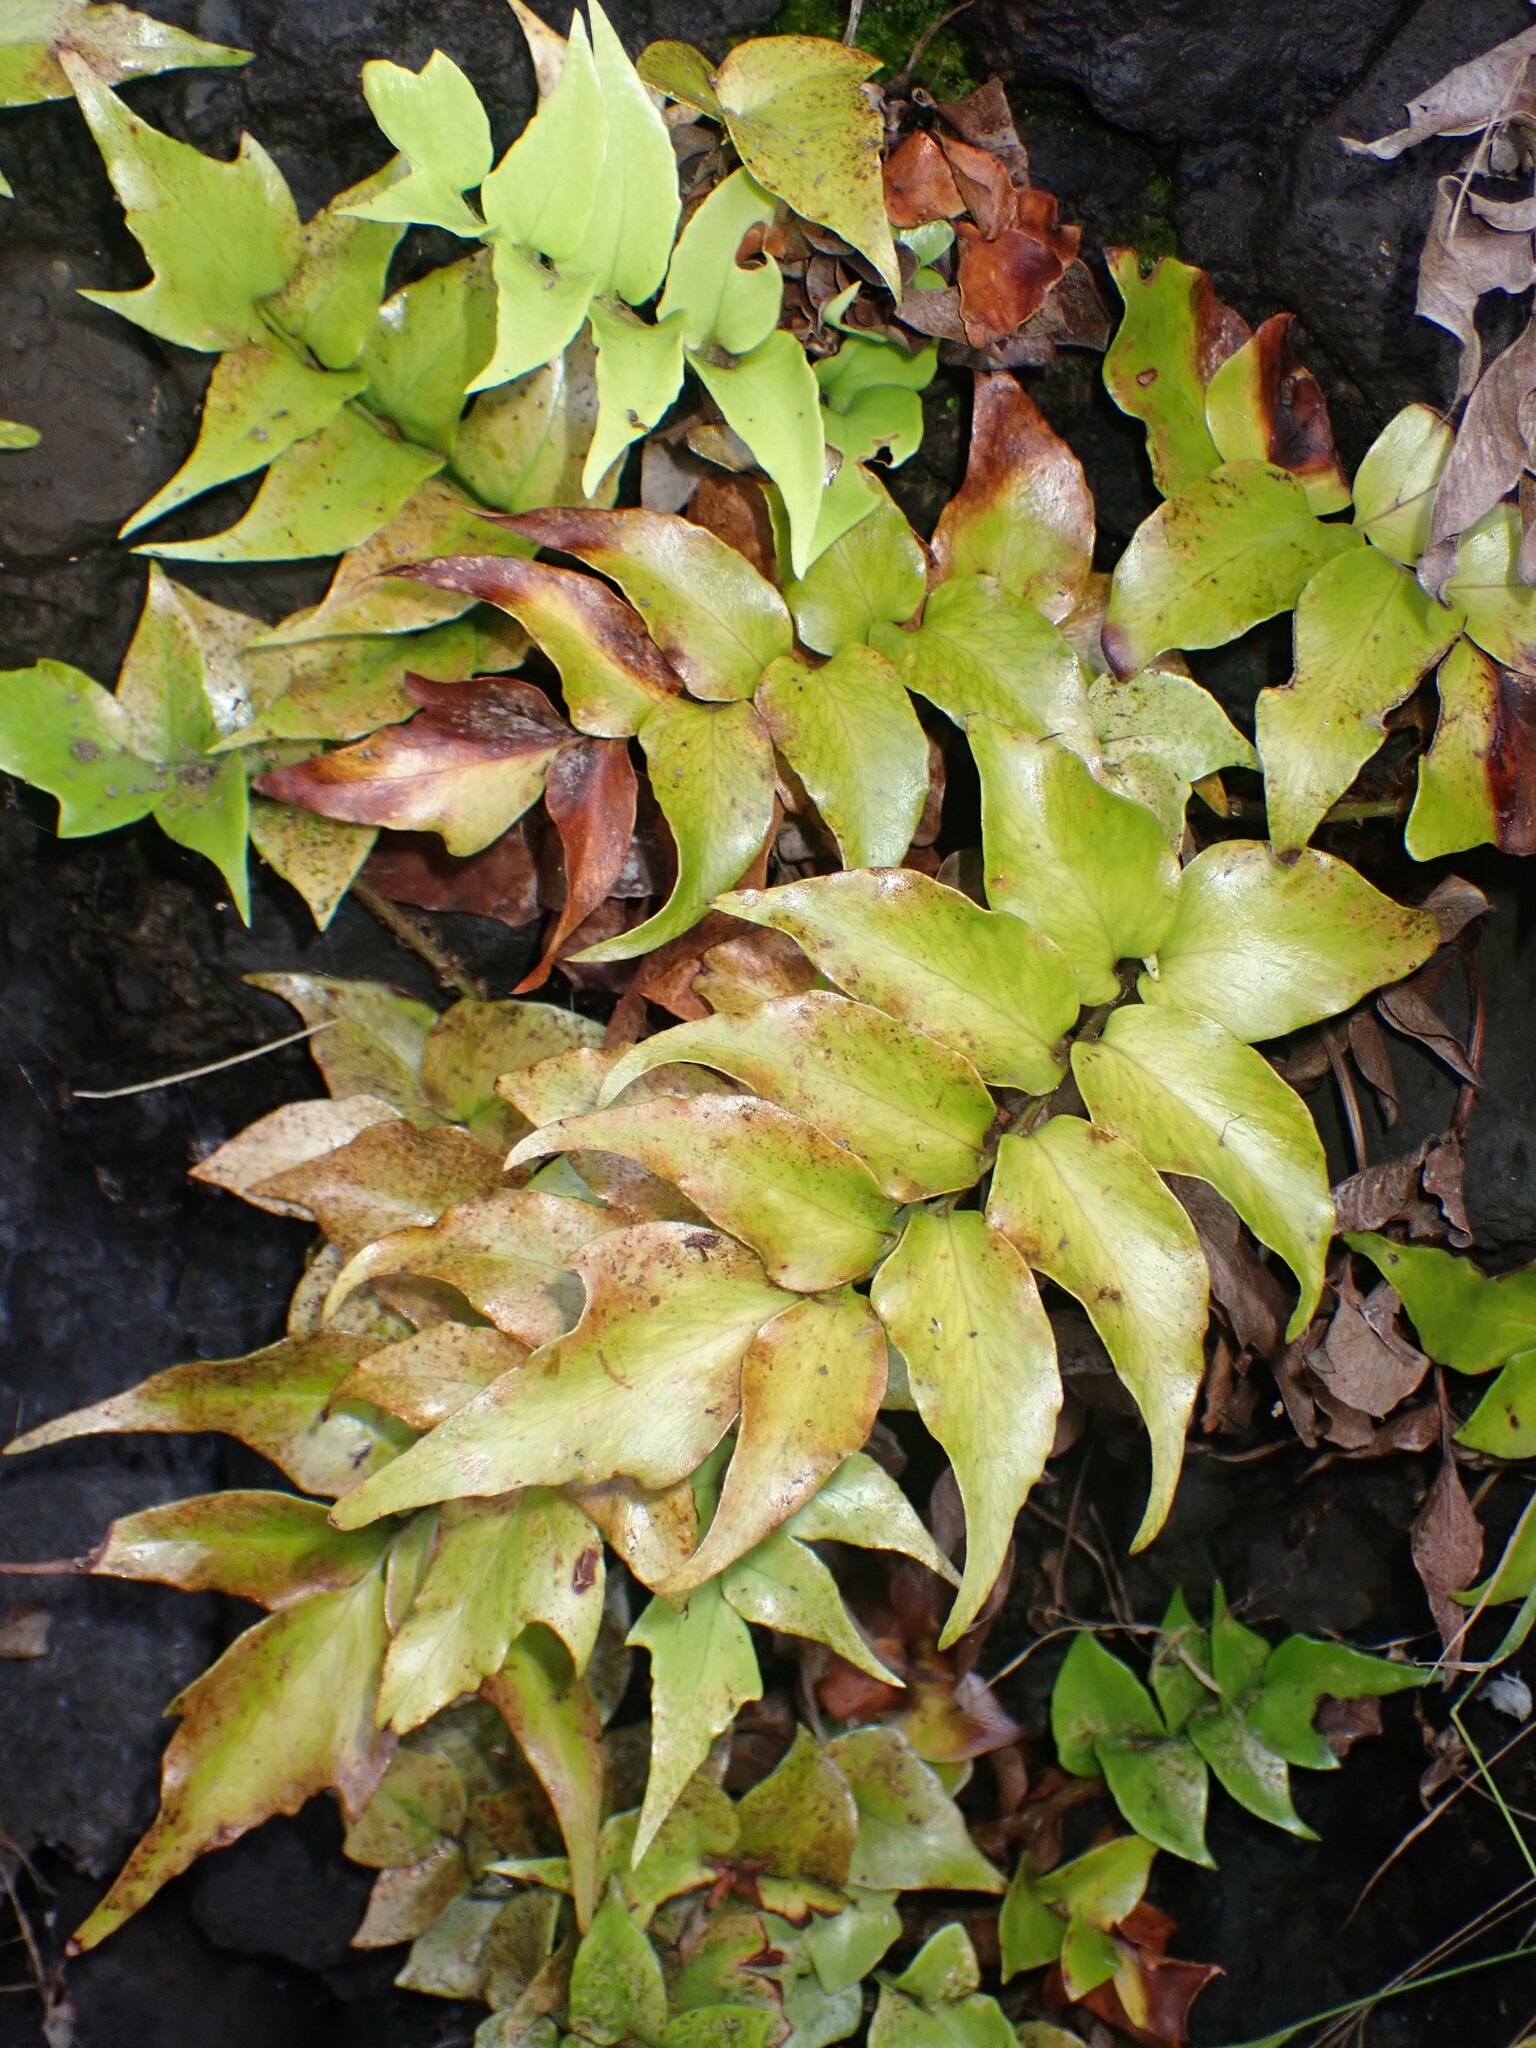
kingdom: Plantae
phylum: Tracheophyta
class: Polypodiopsida
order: Polypodiales
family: Dryopteridaceae
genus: Cyrtomium
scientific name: Cyrtomium falcatum
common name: House holly-fern
